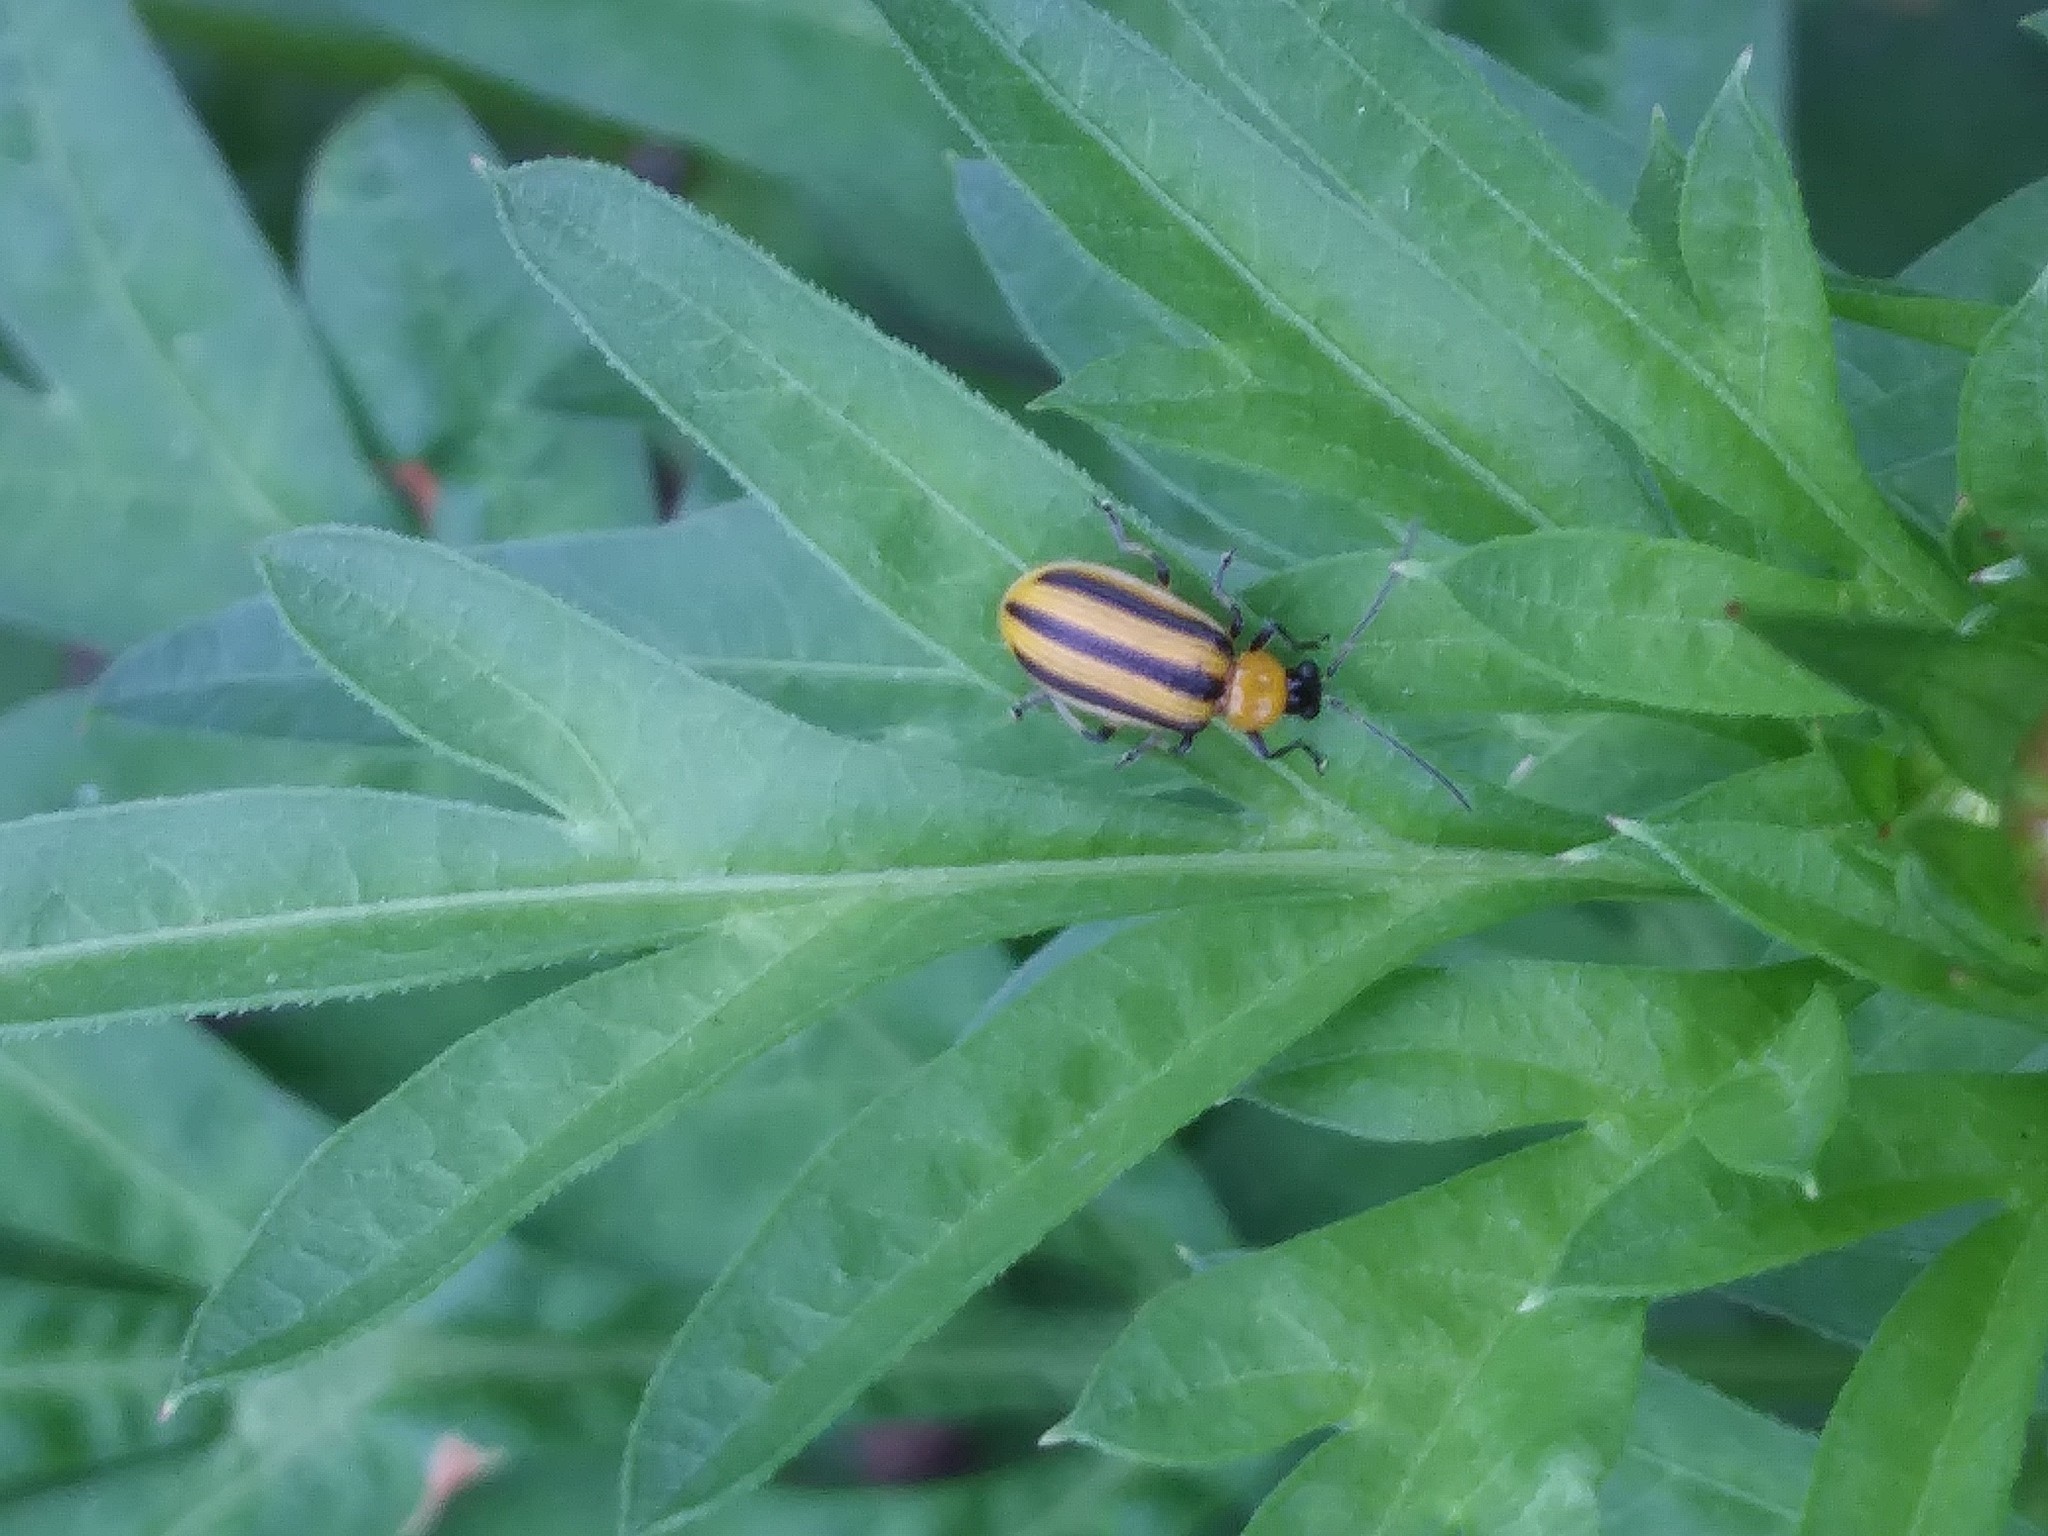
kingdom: Animalia
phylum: Arthropoda
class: Insecta
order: Coleoptera
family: Chrysomelidae
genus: Acalymma
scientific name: Acalymma vittatum
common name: Striped cucumber beetle
